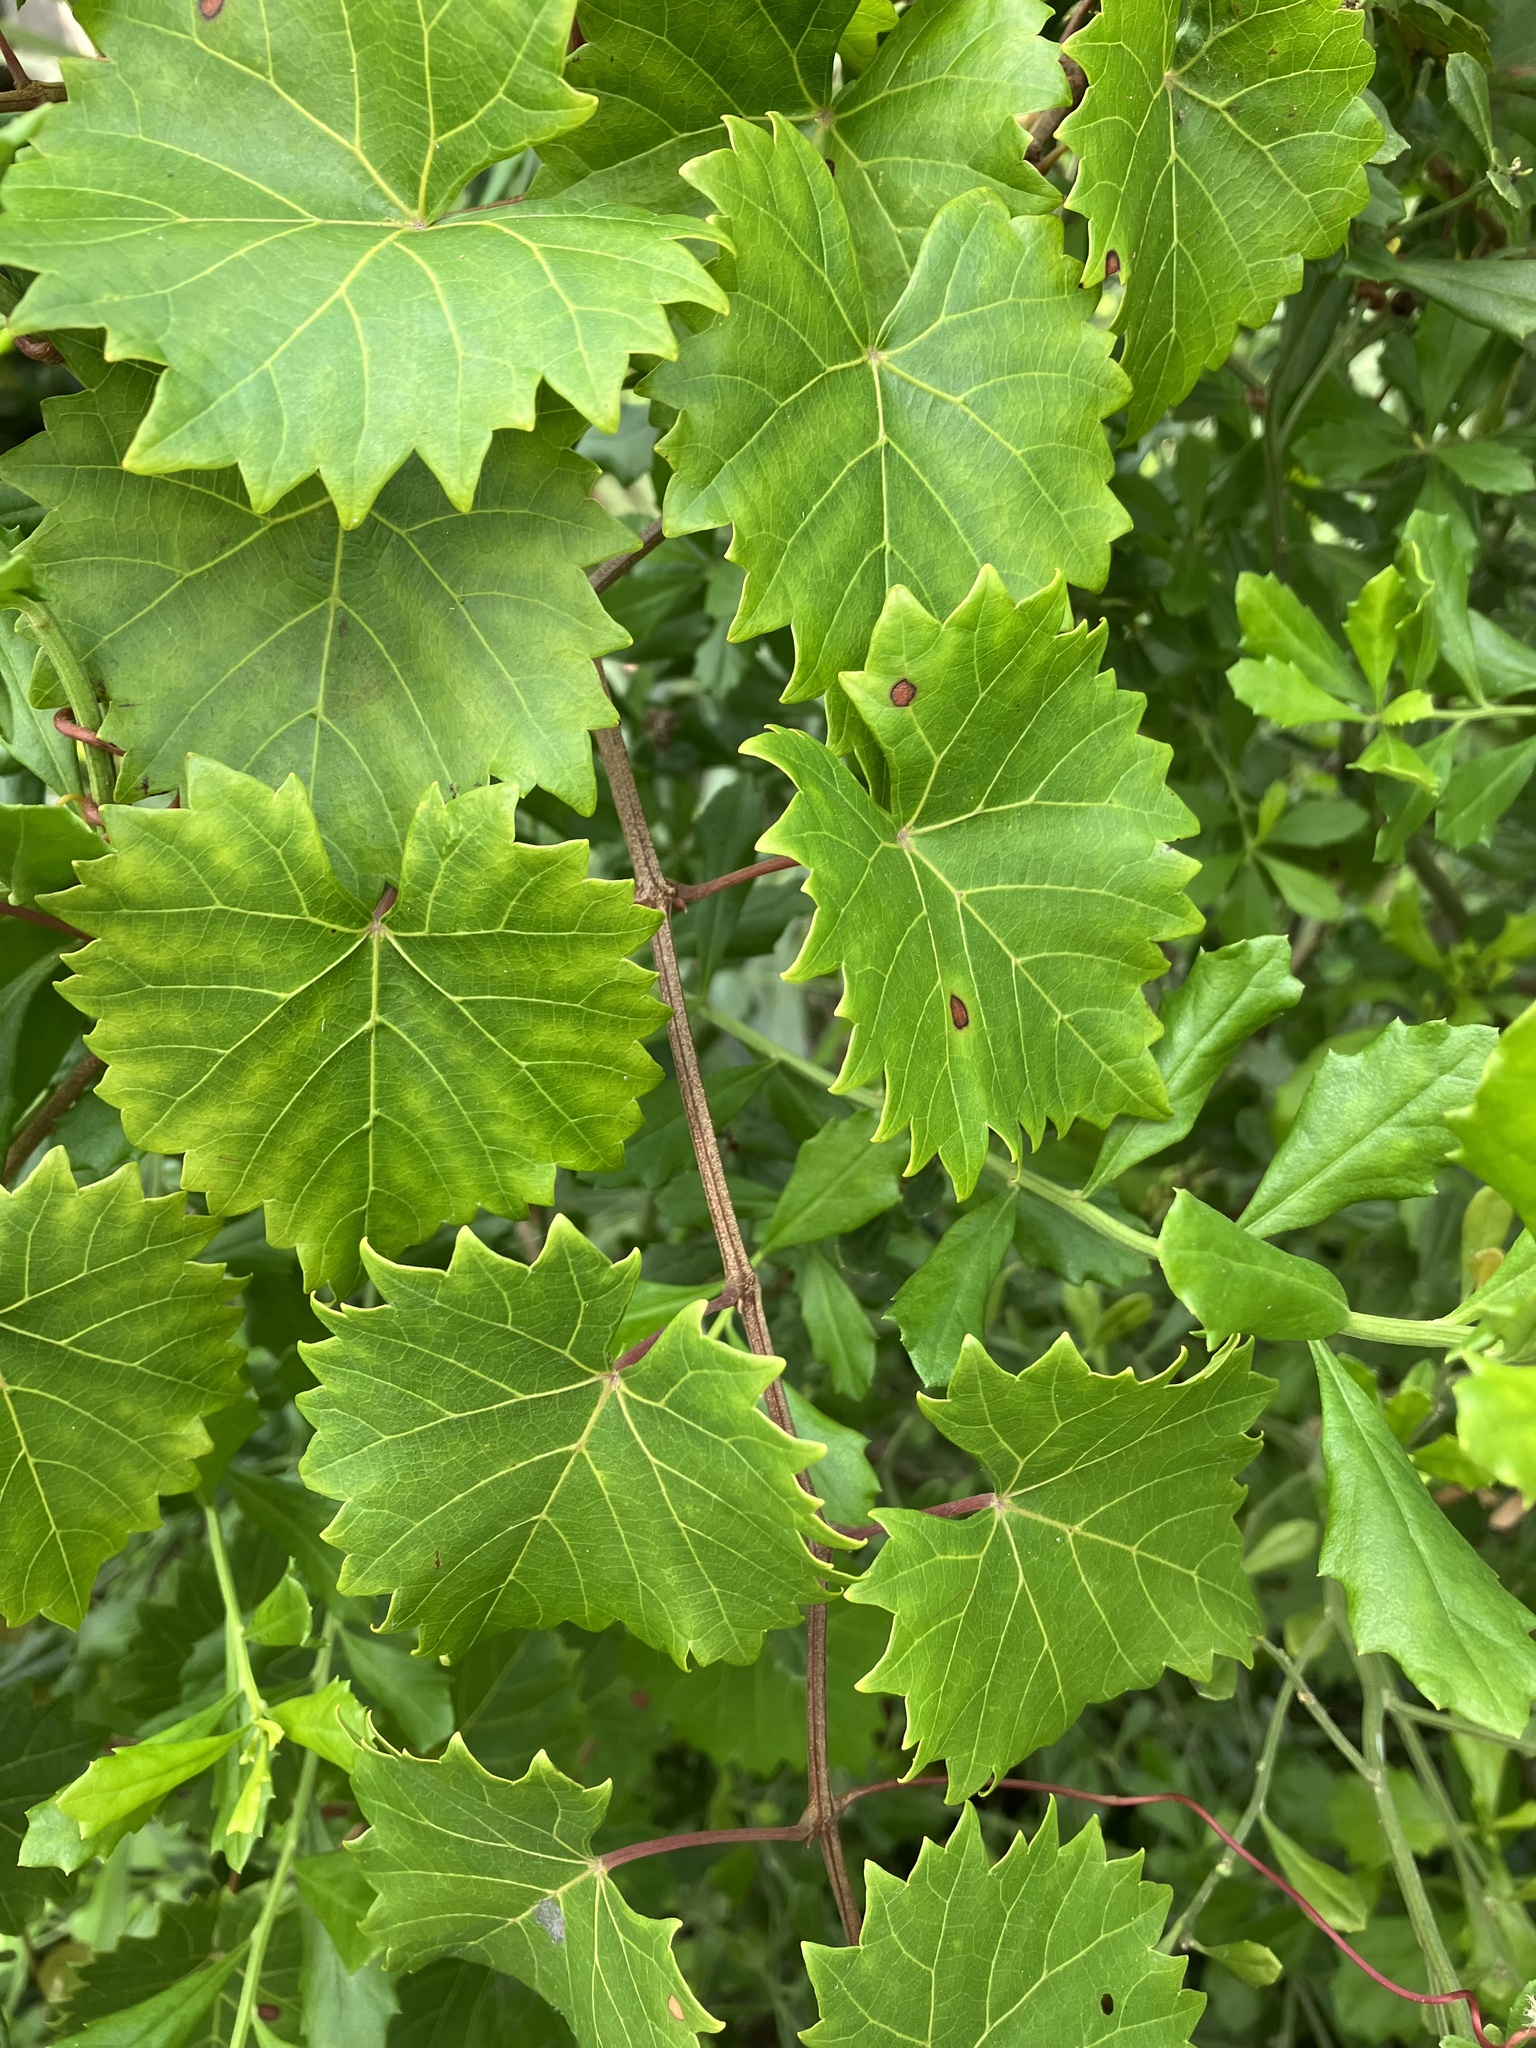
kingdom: Plantae
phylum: Tracheophyta
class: Magnoliopsida
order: Vitales
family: Vitaceae
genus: Vitis
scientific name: Vitis rotundifolia
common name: Muscadine grape
